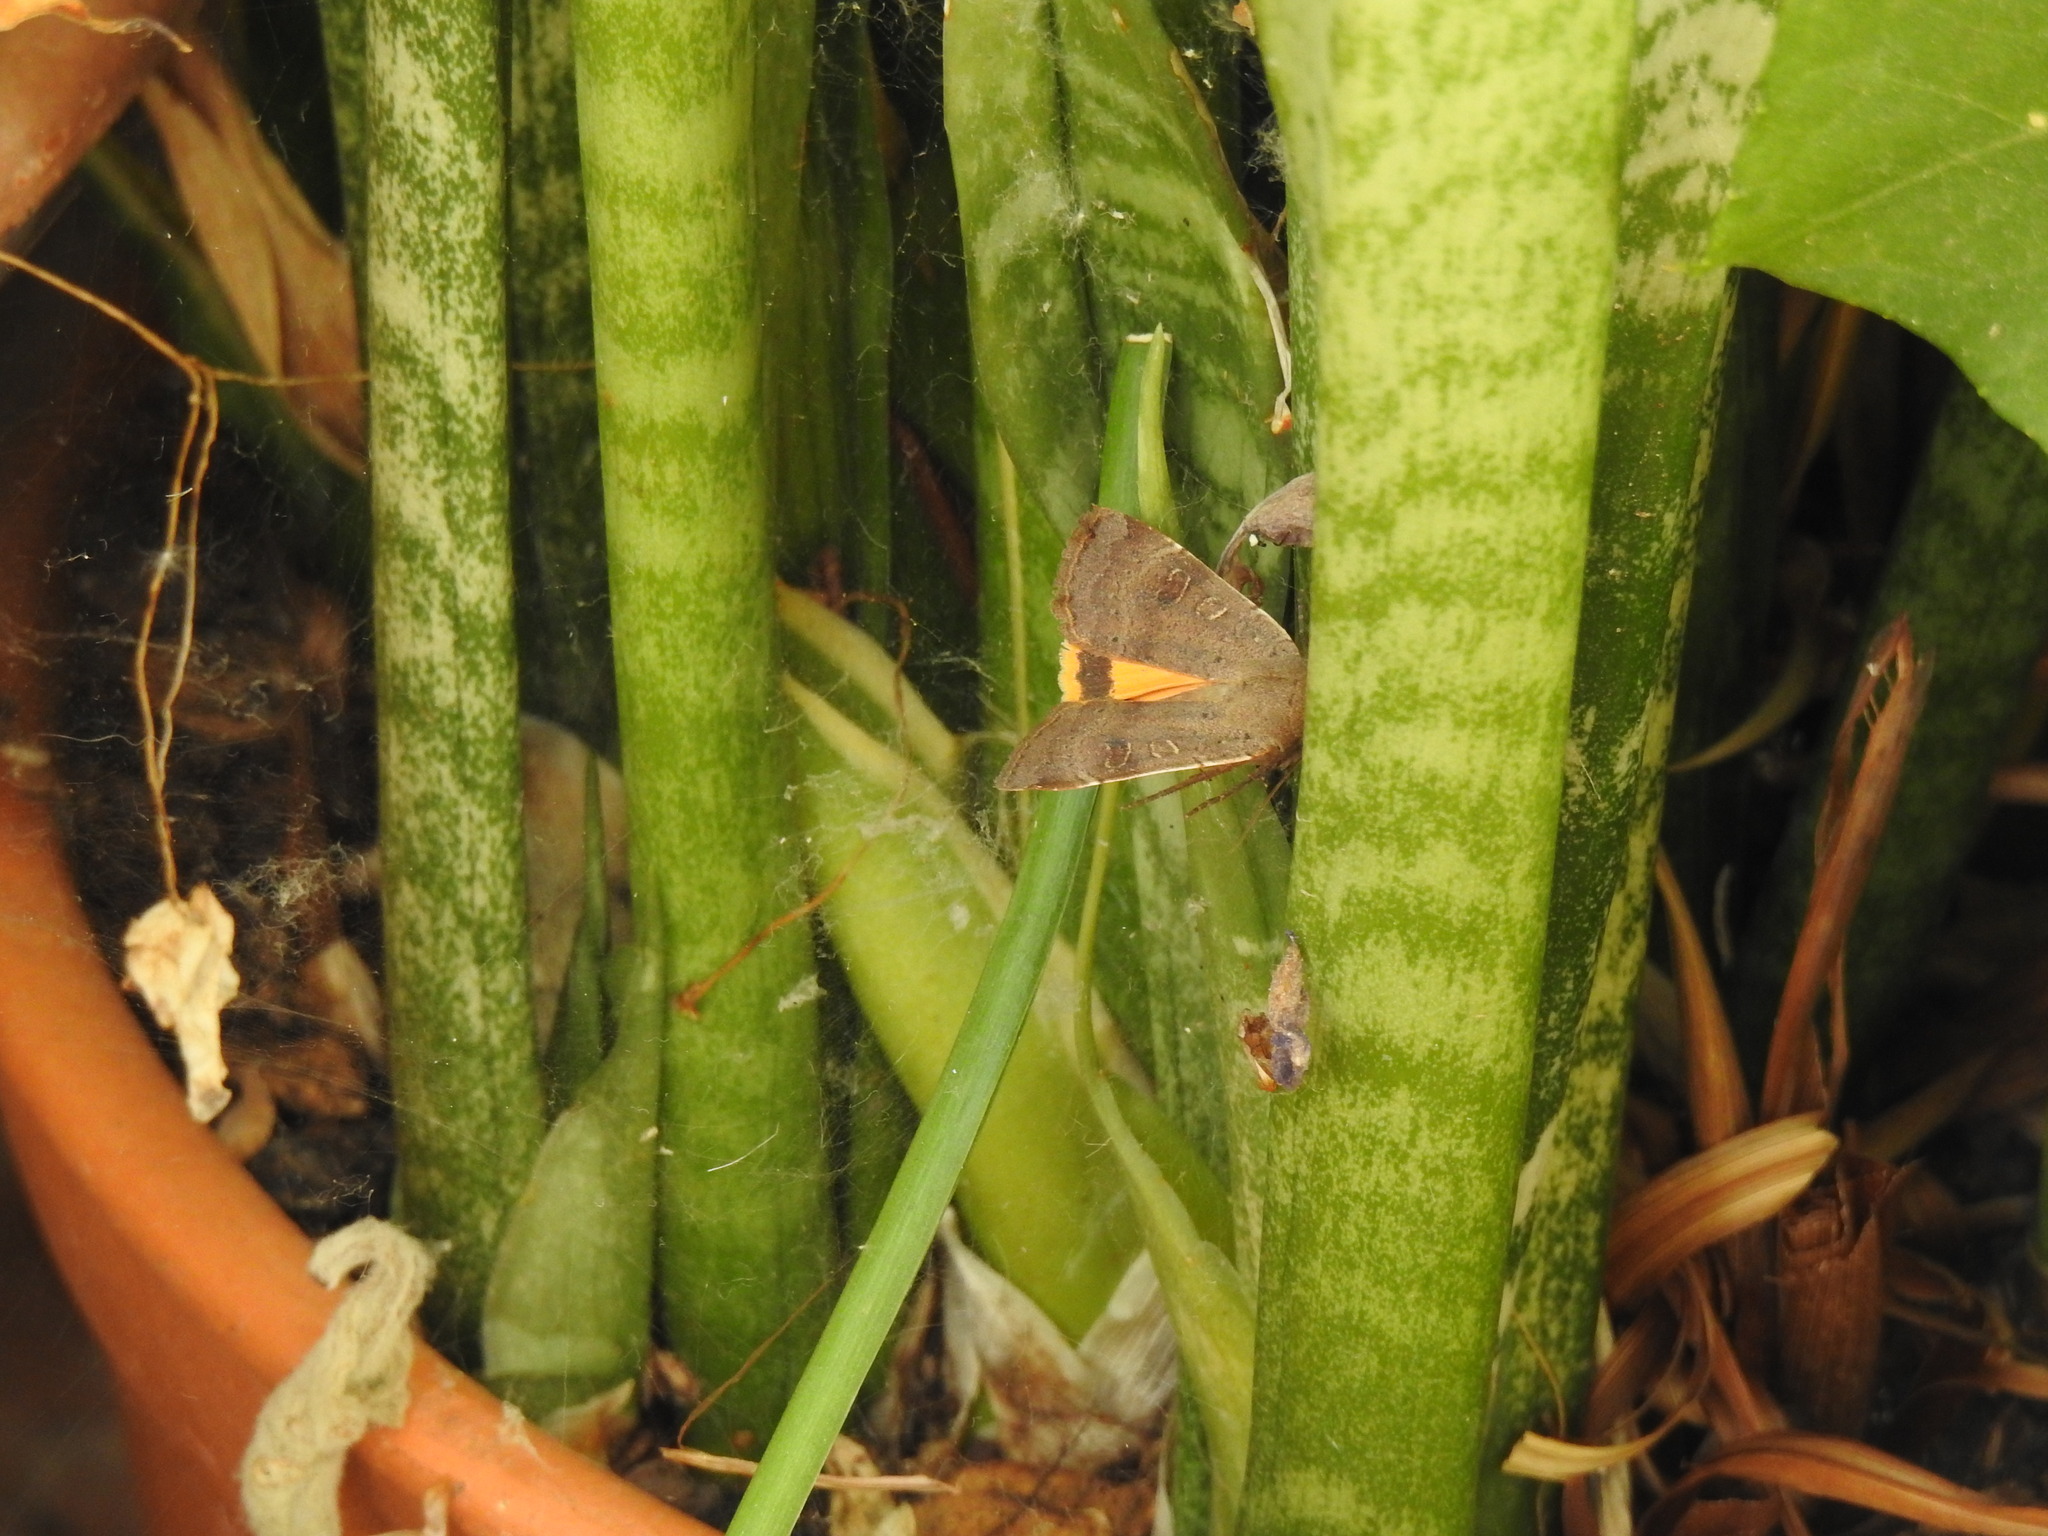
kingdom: Animalia
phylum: Arthropoda
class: Insecta
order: Lepidoptera
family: Noctuidae
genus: Noctua
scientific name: Noctua comes
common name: Lesser yellow underwing
